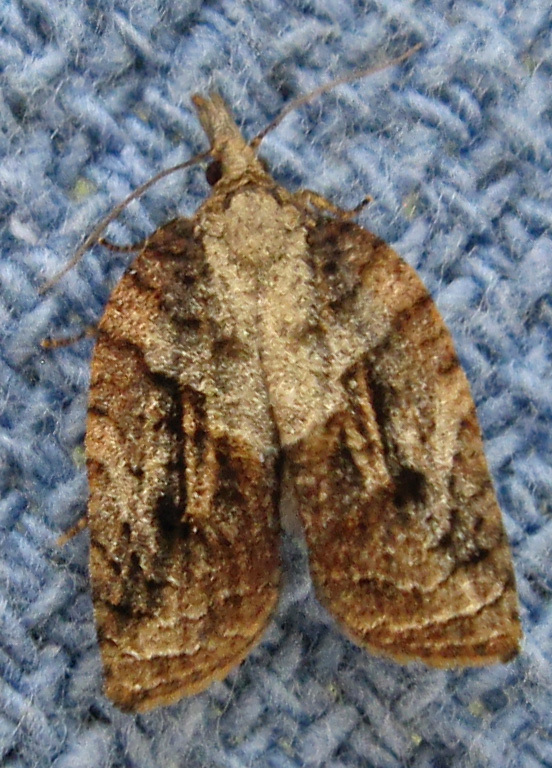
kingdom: Animalia
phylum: Arthropoda
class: Insecta
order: Lepidoptera
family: Tortricidae
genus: Platynota
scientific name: Platynota idaeusalis
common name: Tufted apple bud moth
